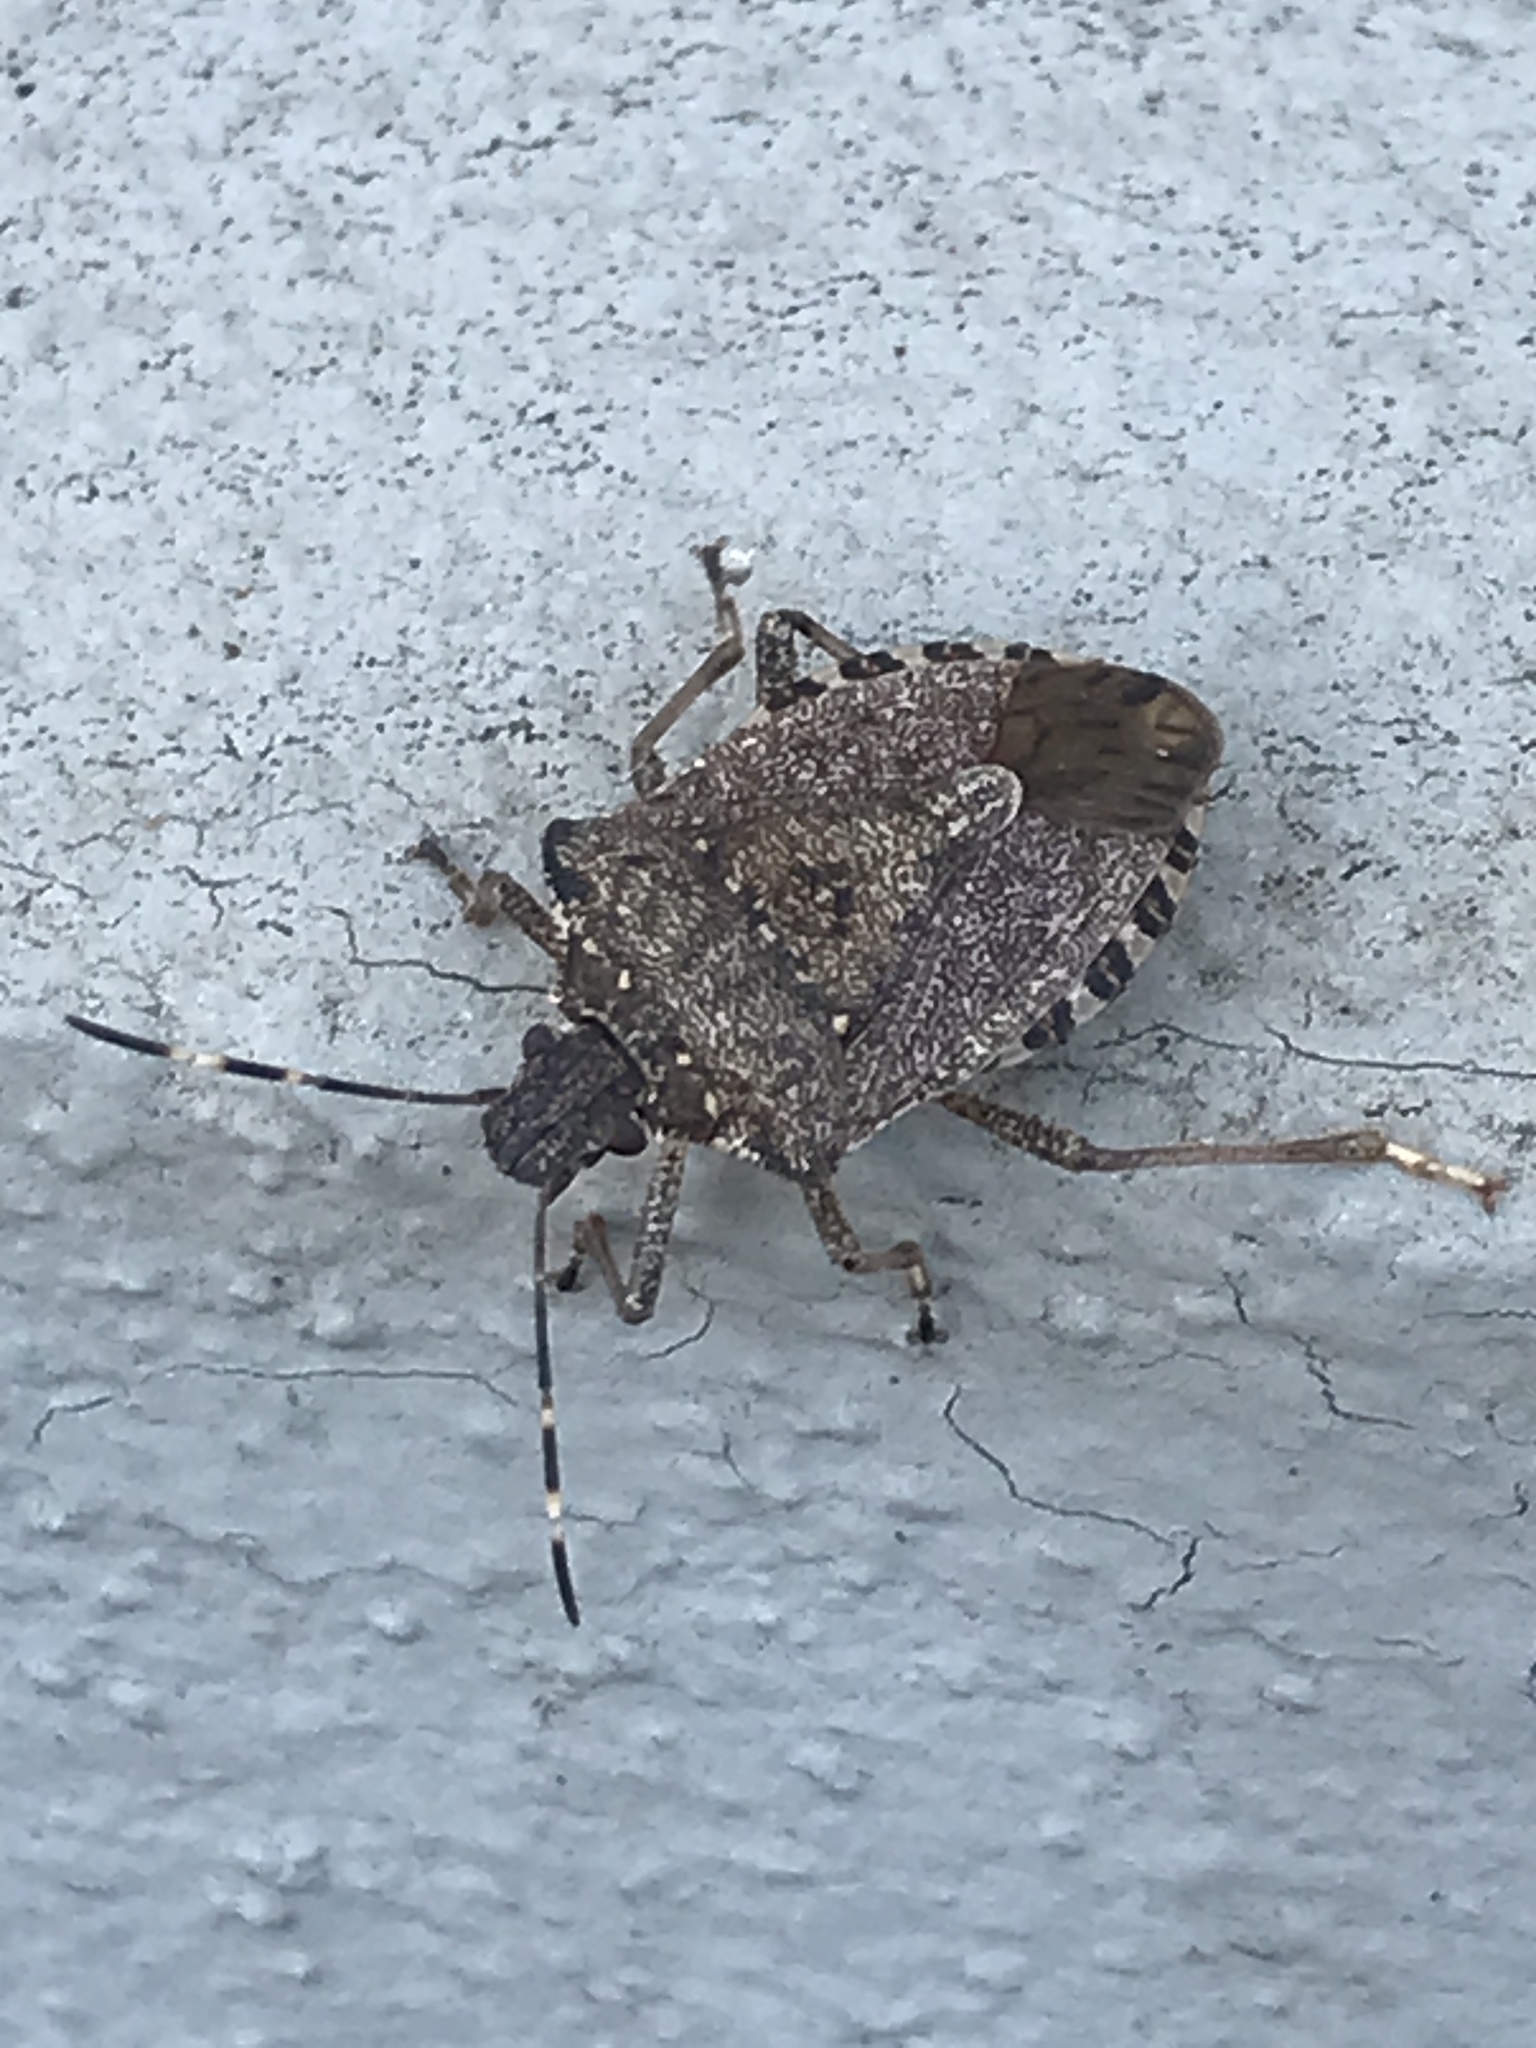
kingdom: Animalia
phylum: Arthropoda
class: Insecta
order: Hemiptera
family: Pentatomidae
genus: Halyomorpha
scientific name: Halyomorpha halys
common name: Brown marmorated stink bug
